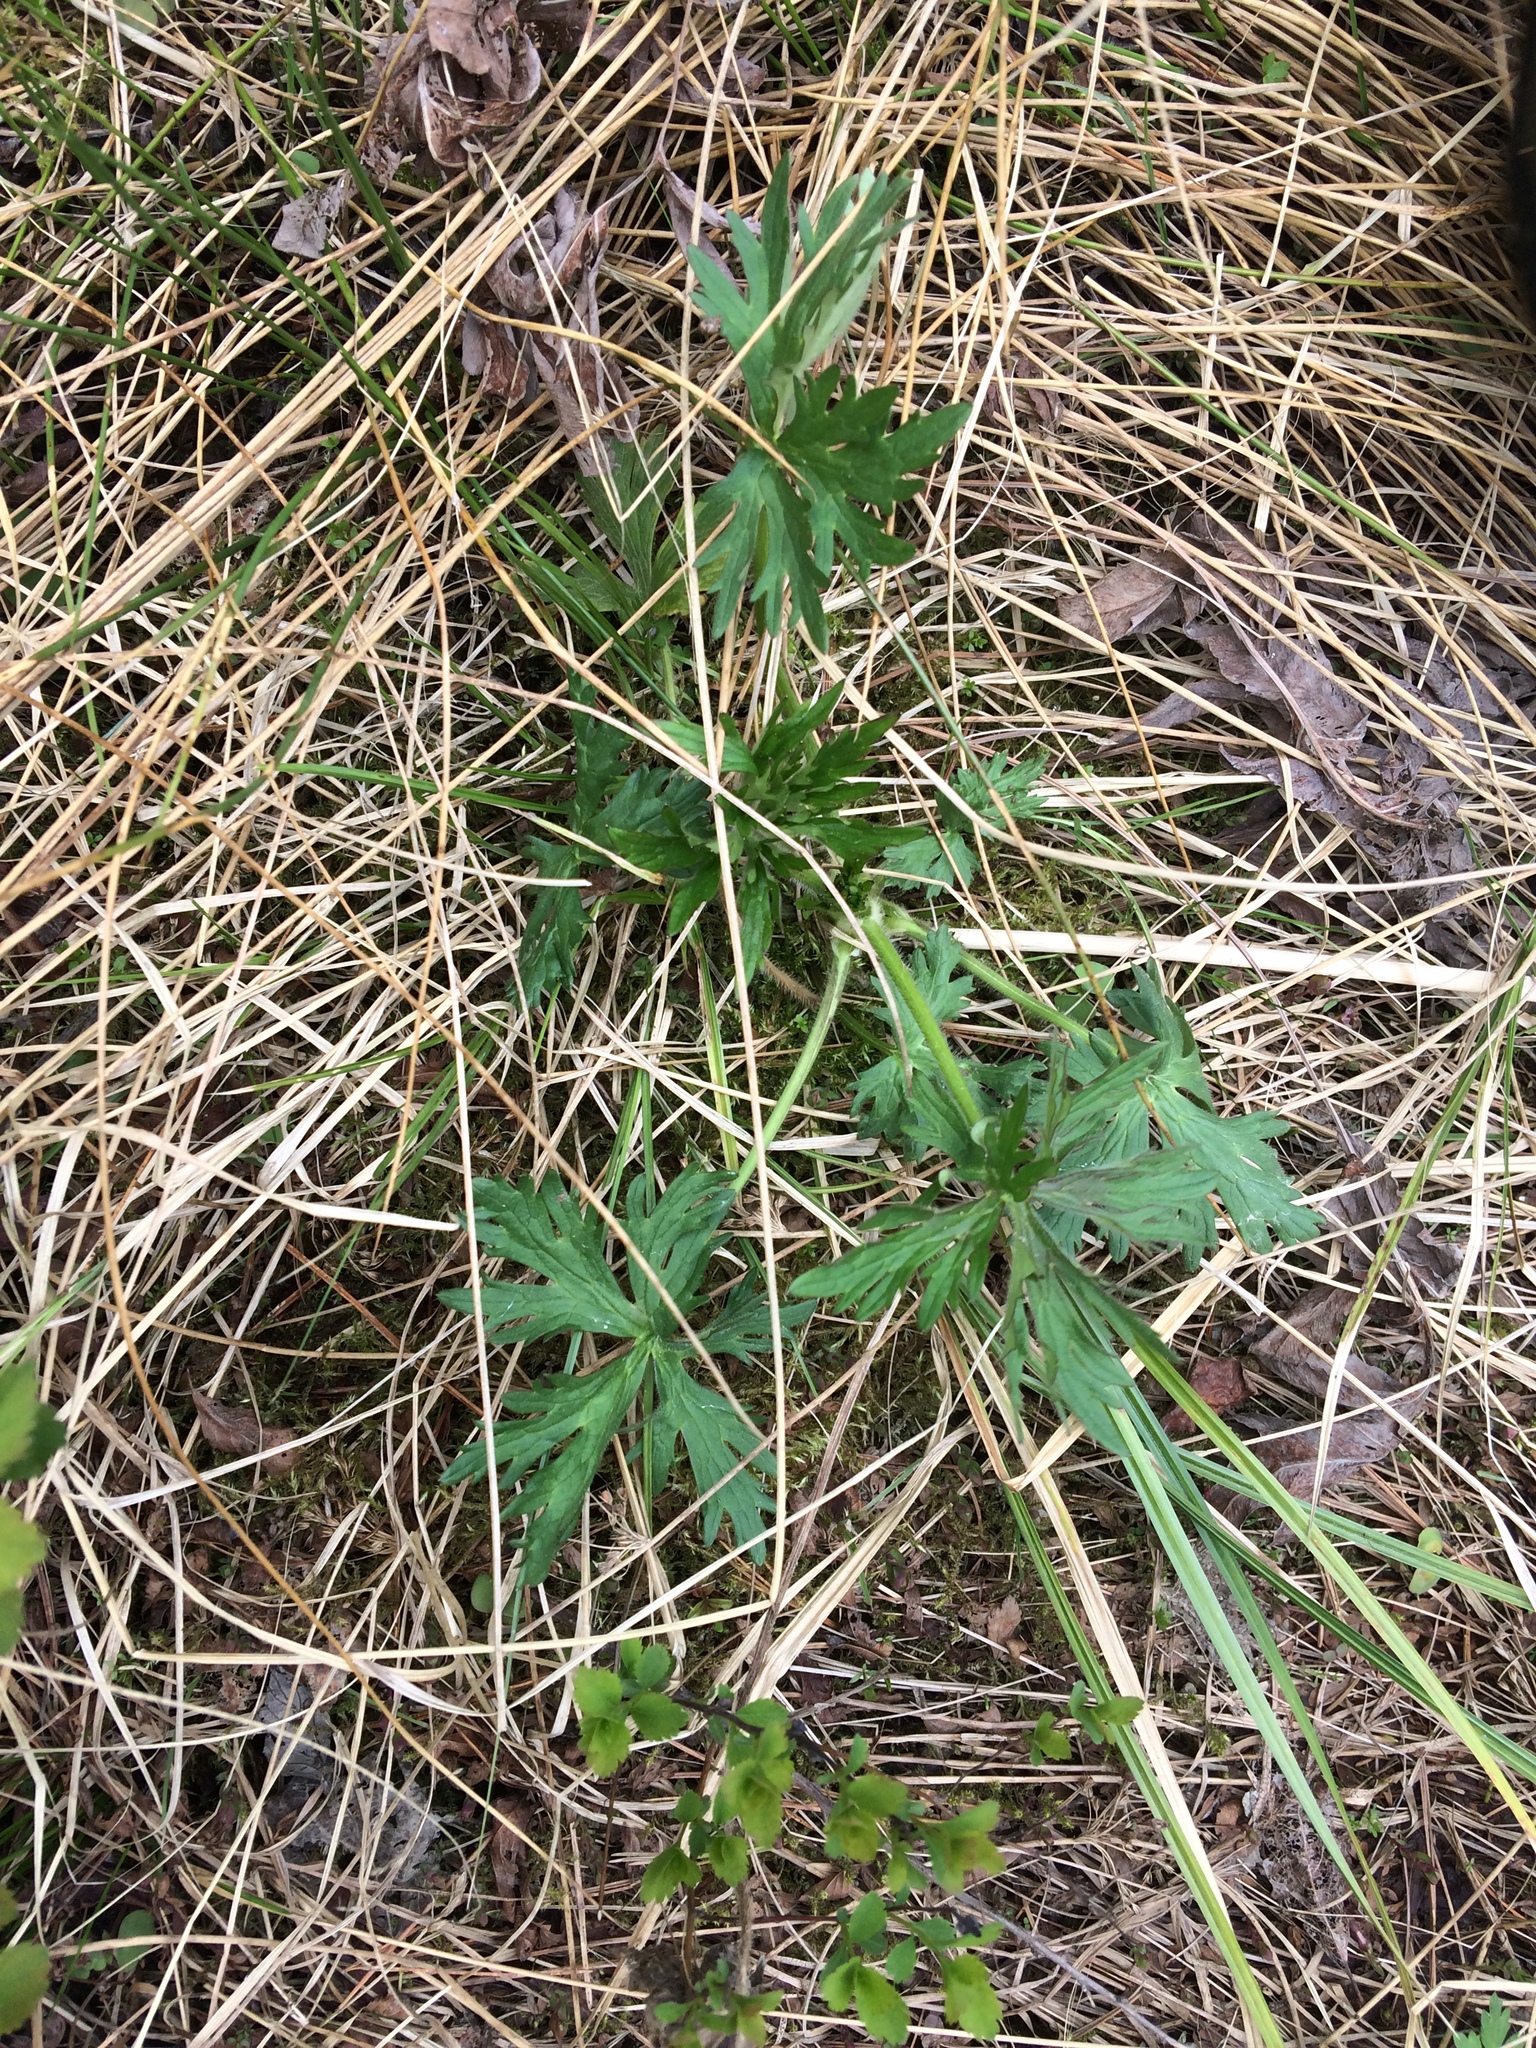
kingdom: Plantae
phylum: Tracheophyta
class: Magnoliopsida
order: Ranunculales
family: Ranunculaceae
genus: Ranunculus
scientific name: Ranunculus acris
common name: Meadow buttercup
